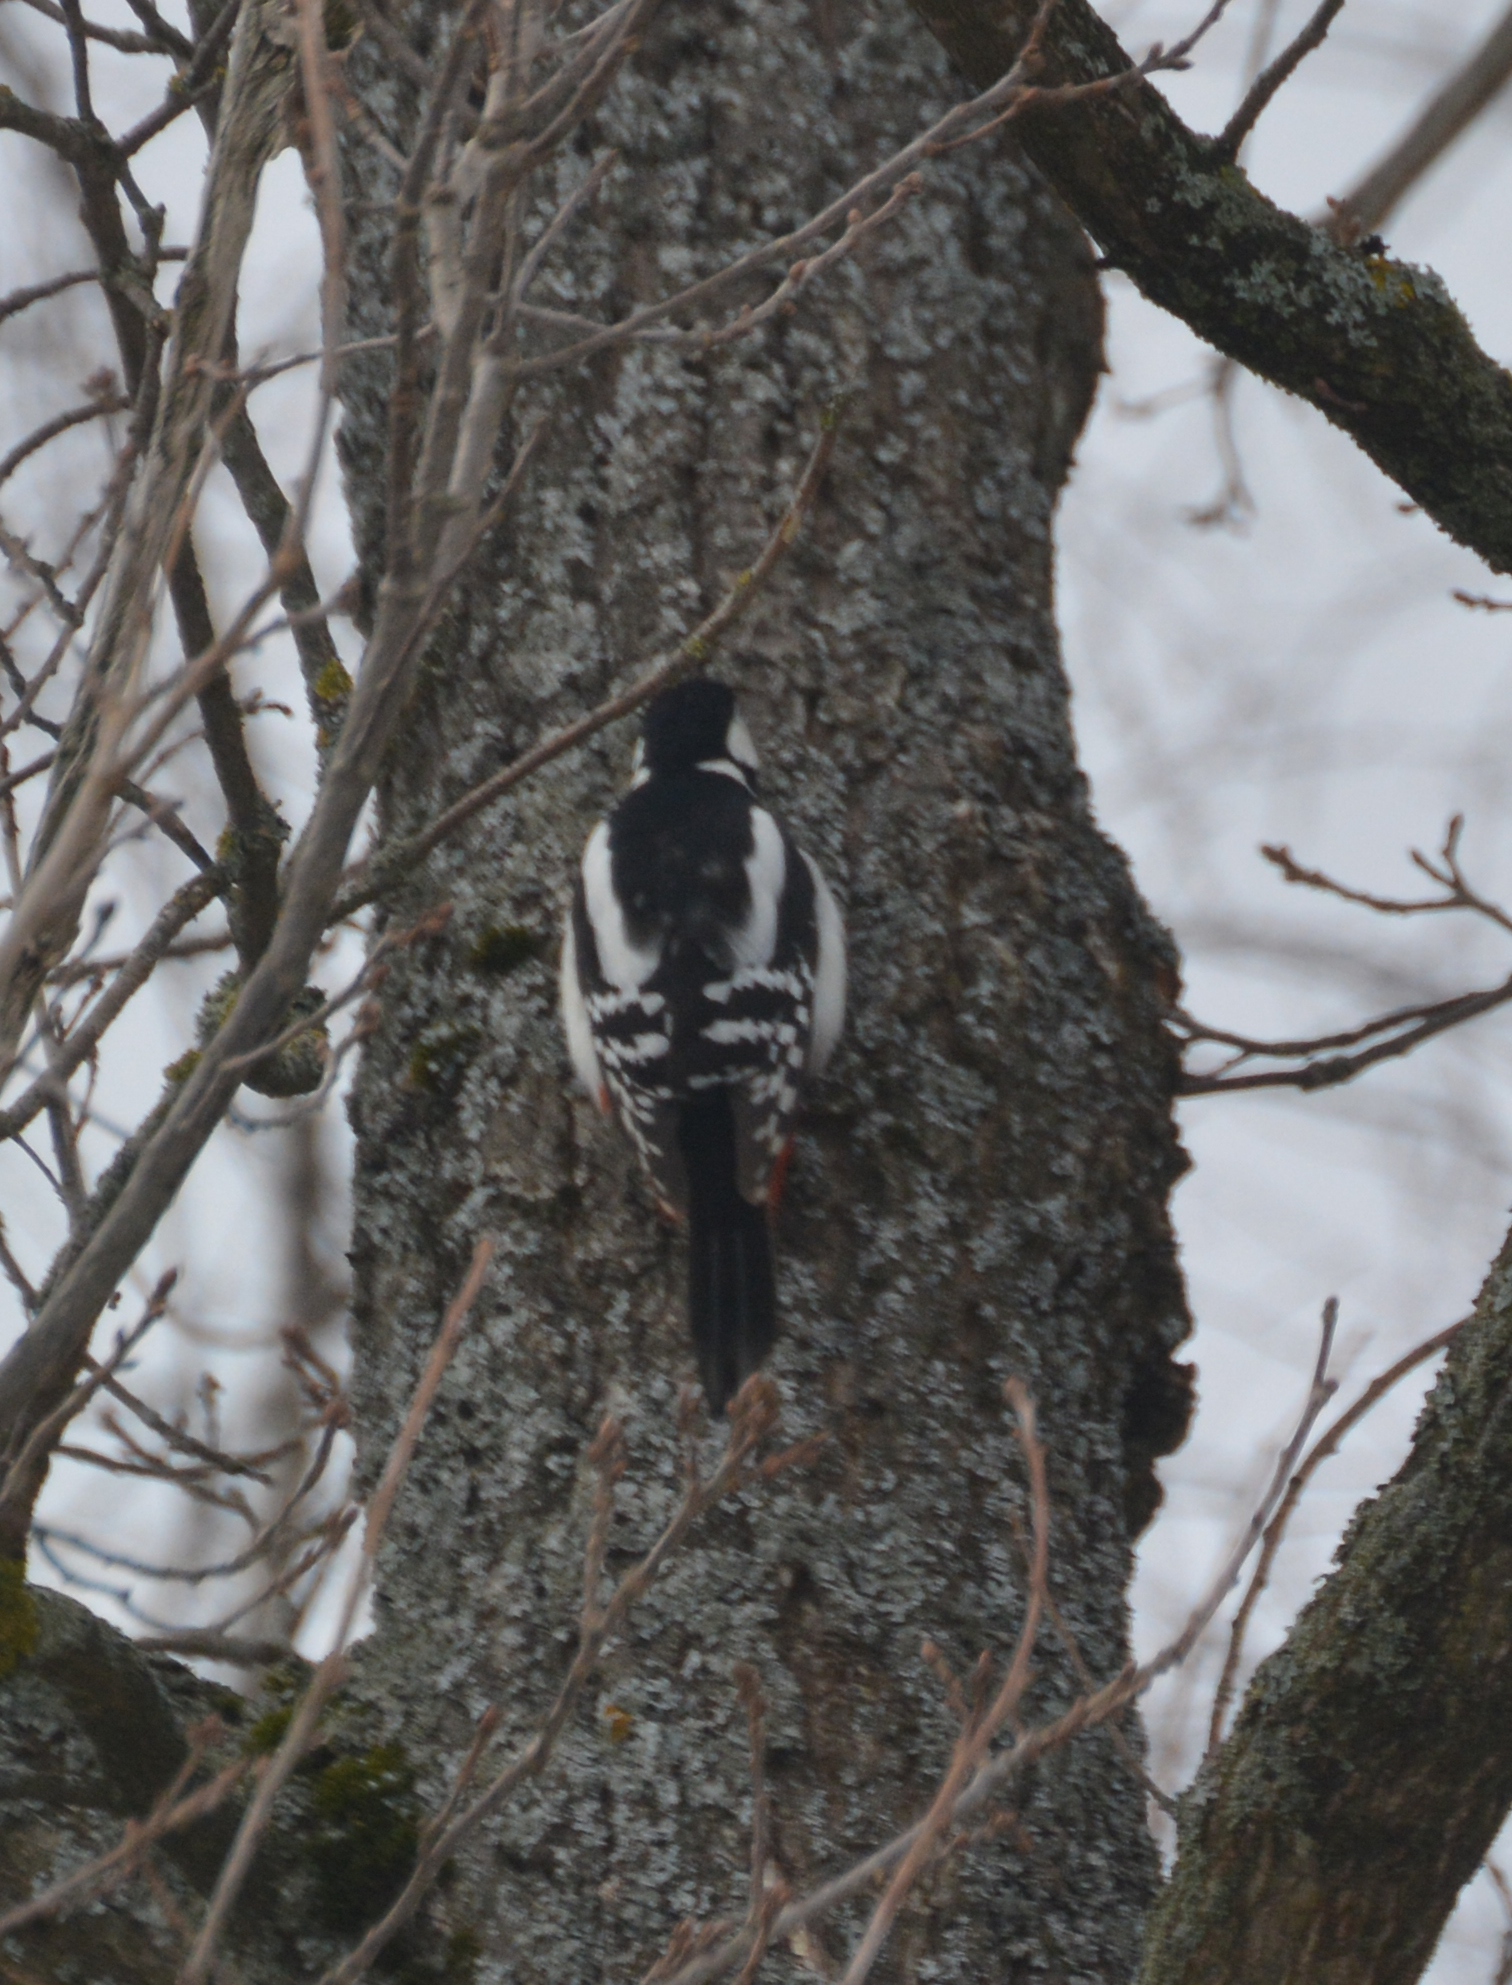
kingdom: Animalia
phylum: Chordata
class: Aves
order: Piciformes
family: Picidae
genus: Dendrocopos
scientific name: Dendrocopos major
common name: Great spotted woodpecker
